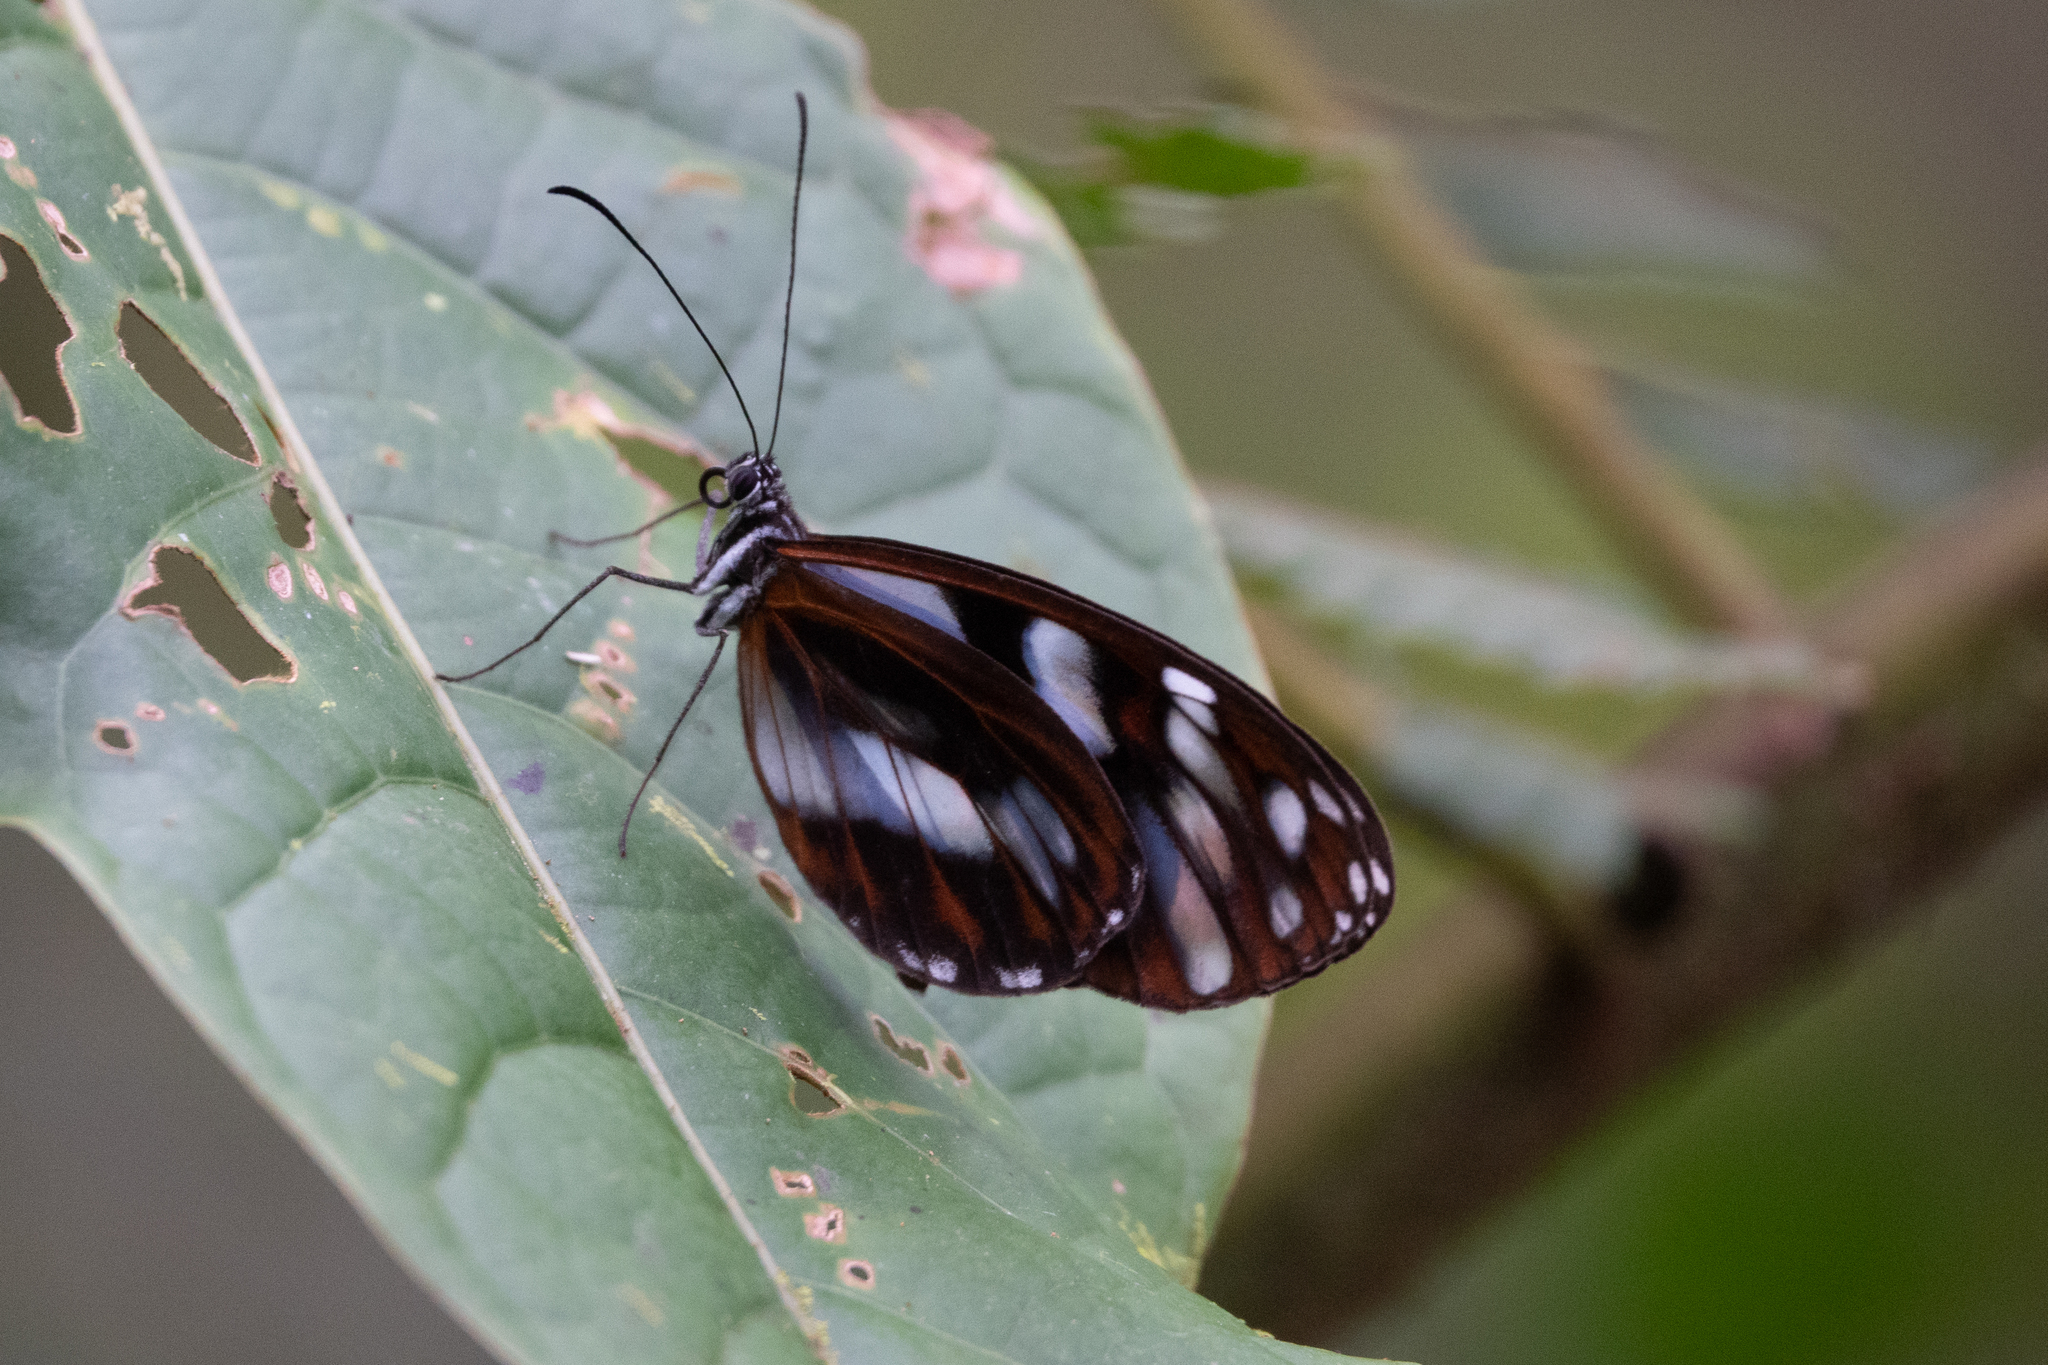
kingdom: Animalia
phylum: Arthropoda
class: Insecta
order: Lepidoptera
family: Nymphalidae
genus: Oleria
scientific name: Oleria baizana
